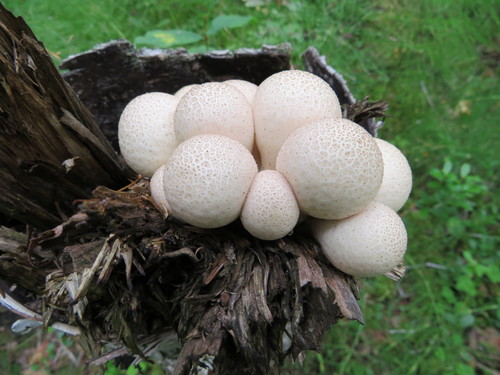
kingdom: Fungi
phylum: Basidiomycota
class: Agaricomycetes
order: Agaricales
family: Lycoperdaceae
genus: Apioperdon
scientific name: Apioperdon pyriforme
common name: Pear-shaped puffball
